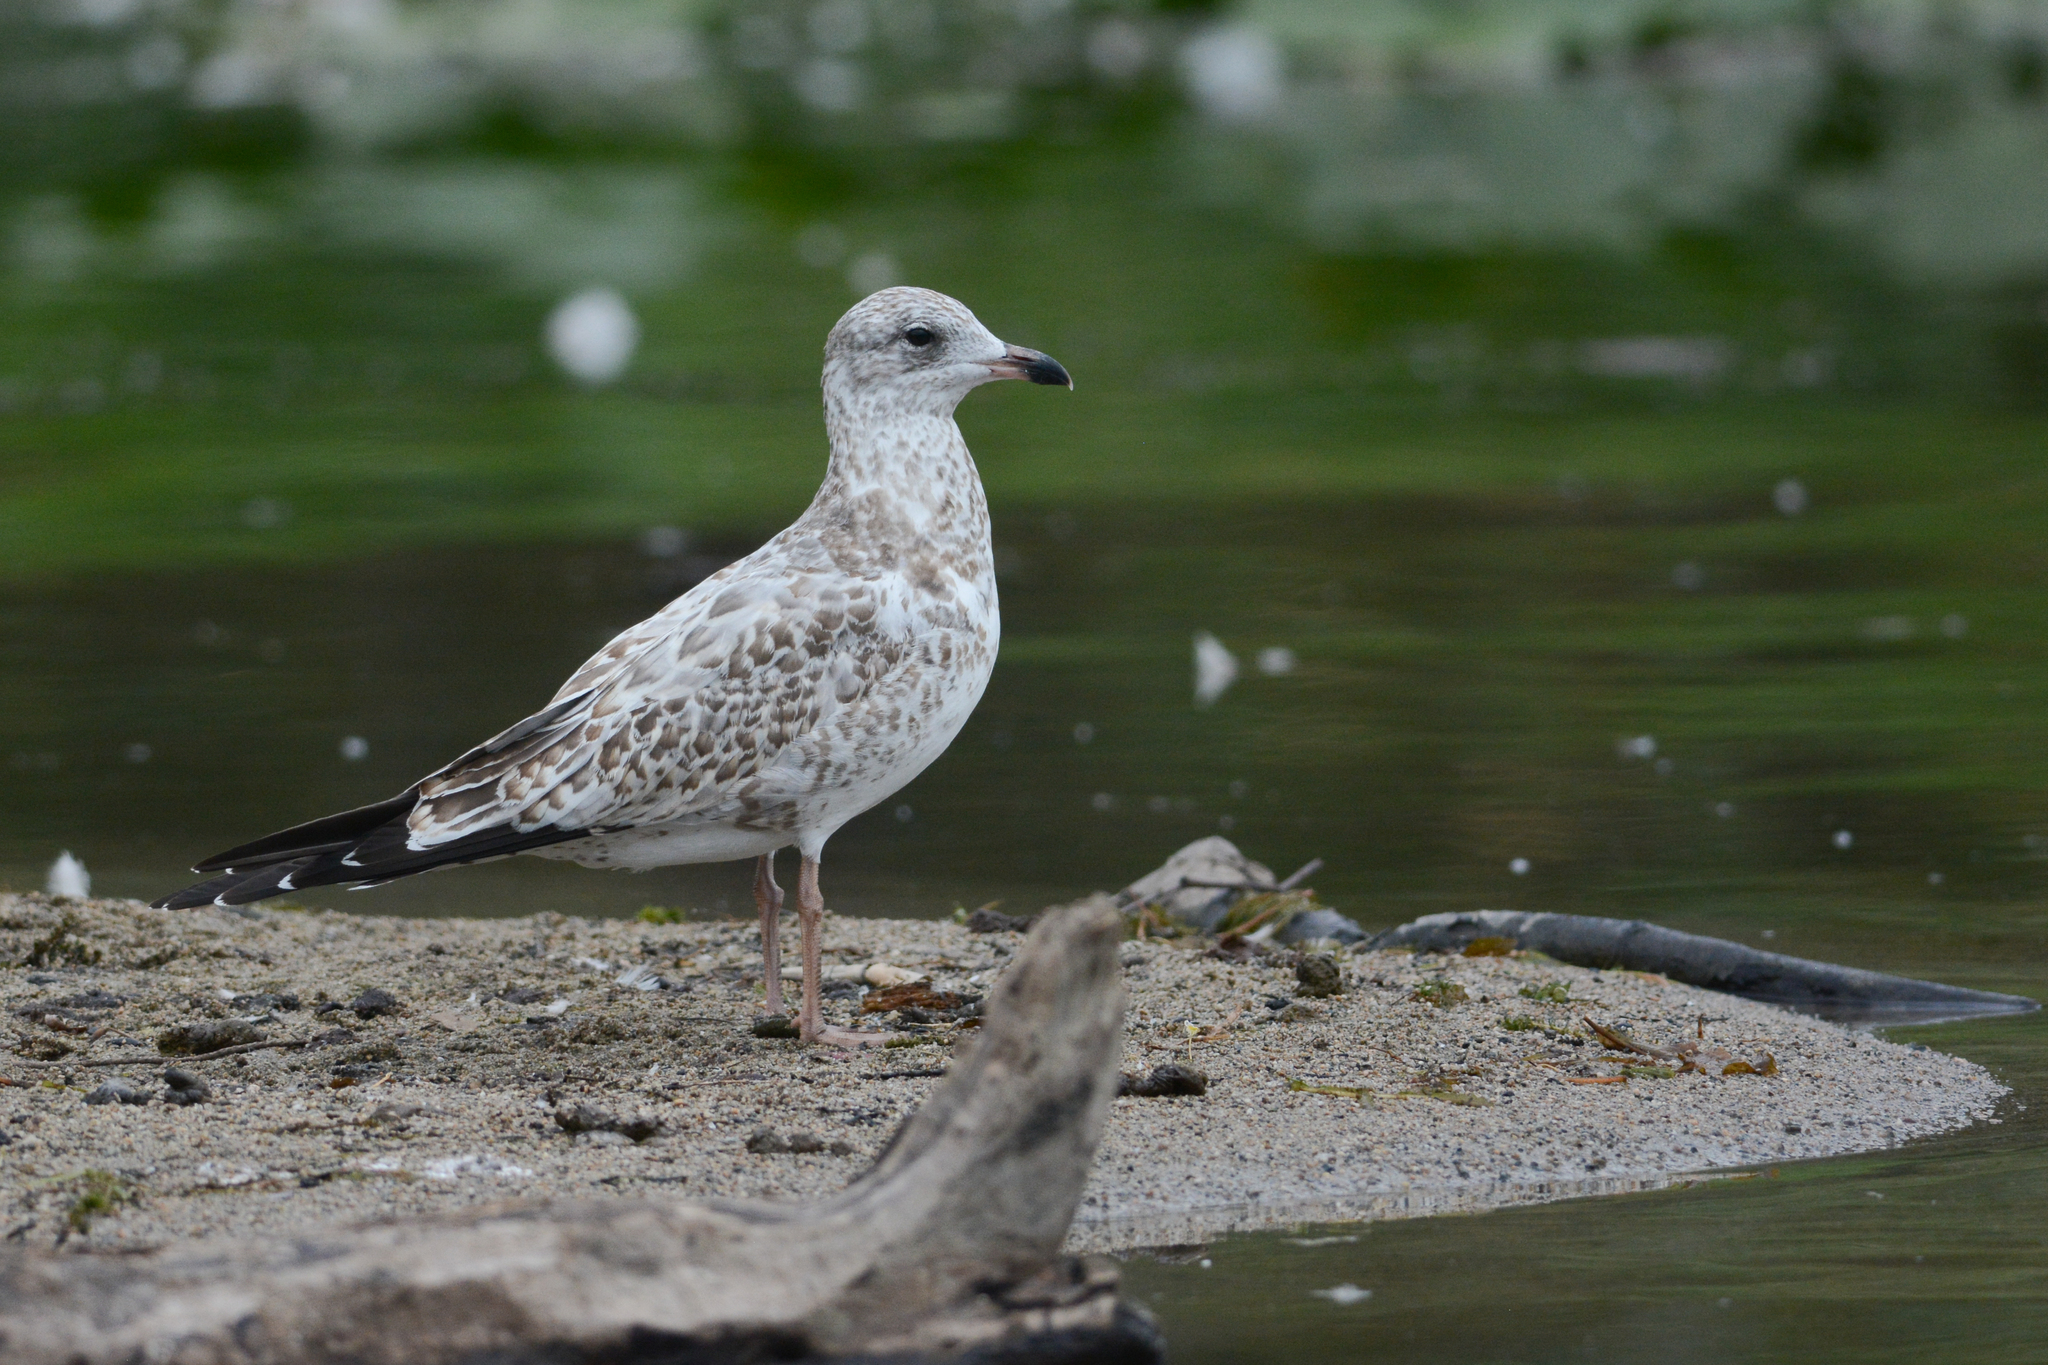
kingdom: Animalia
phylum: Chordata
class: Aves
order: Charadriiformes
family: Laridae
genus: Larus
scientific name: Larus delawarensis
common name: Ring-billed gull
